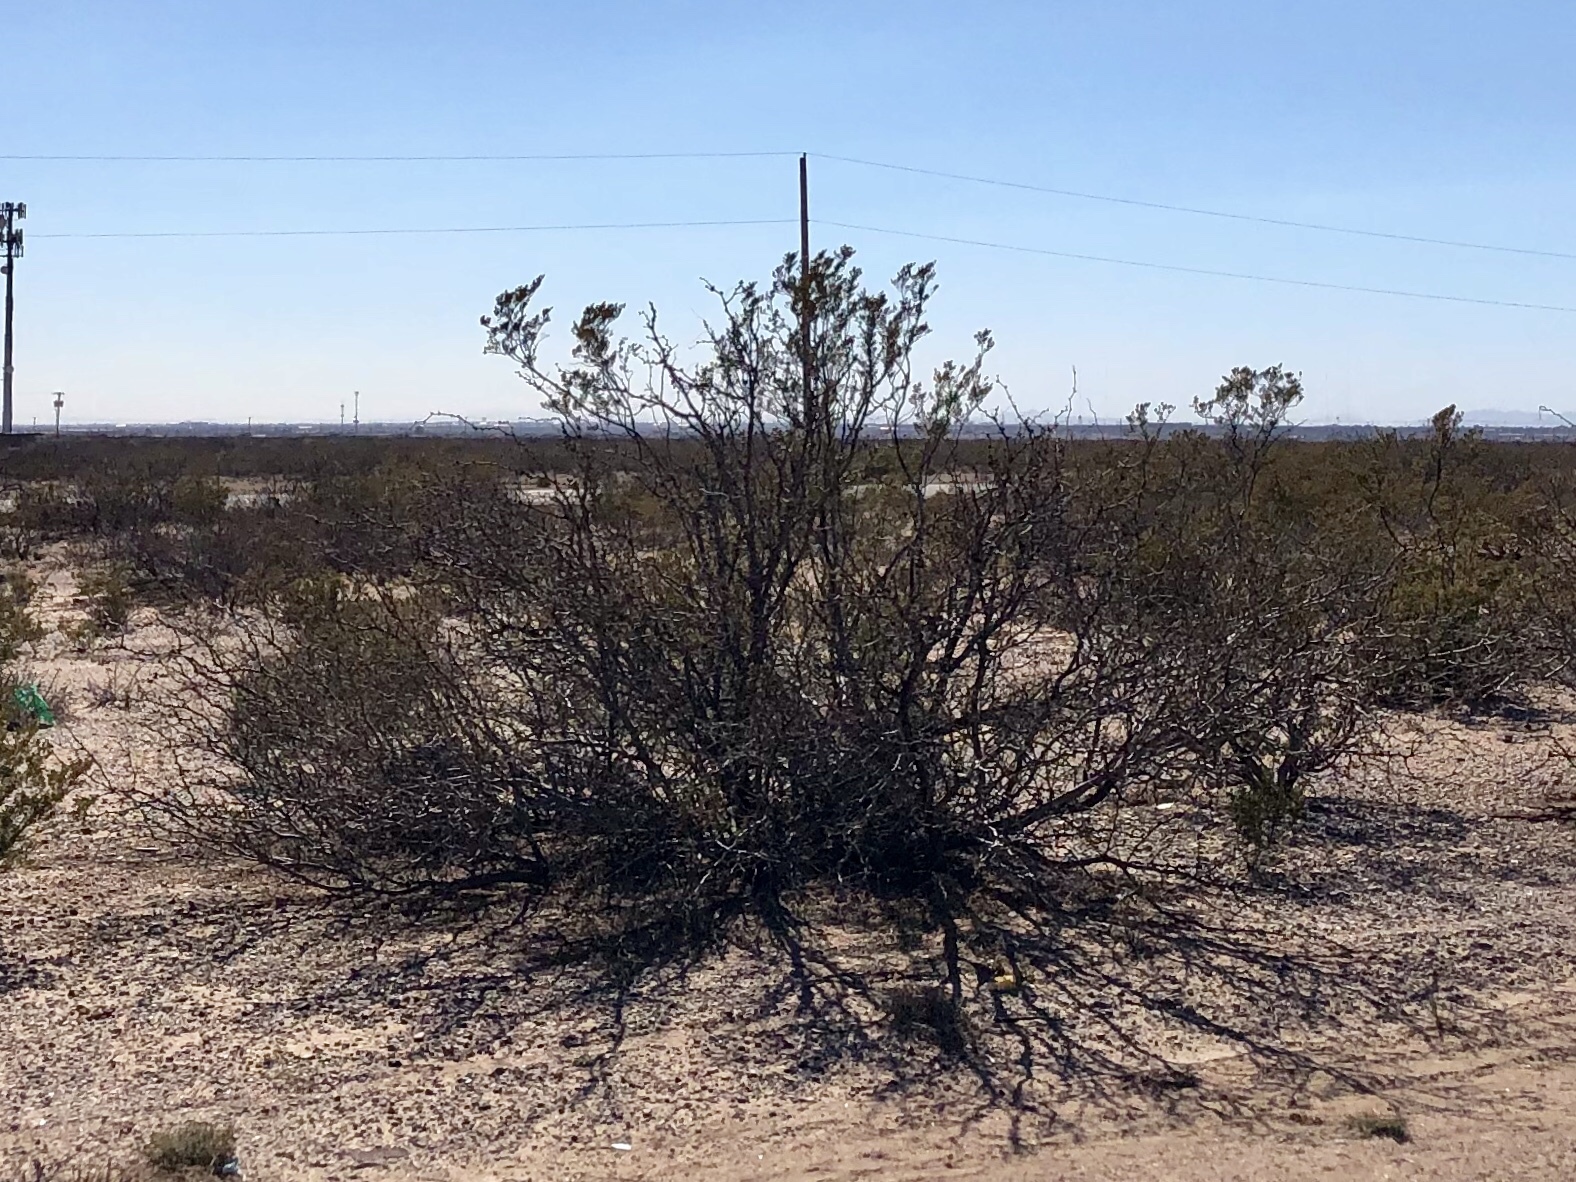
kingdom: Plantae
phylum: Tracheophyta
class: Magnoliopsida
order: Zygophyllales
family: Zygophyllaceae
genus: Larrea
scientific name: Larrea tridentata
